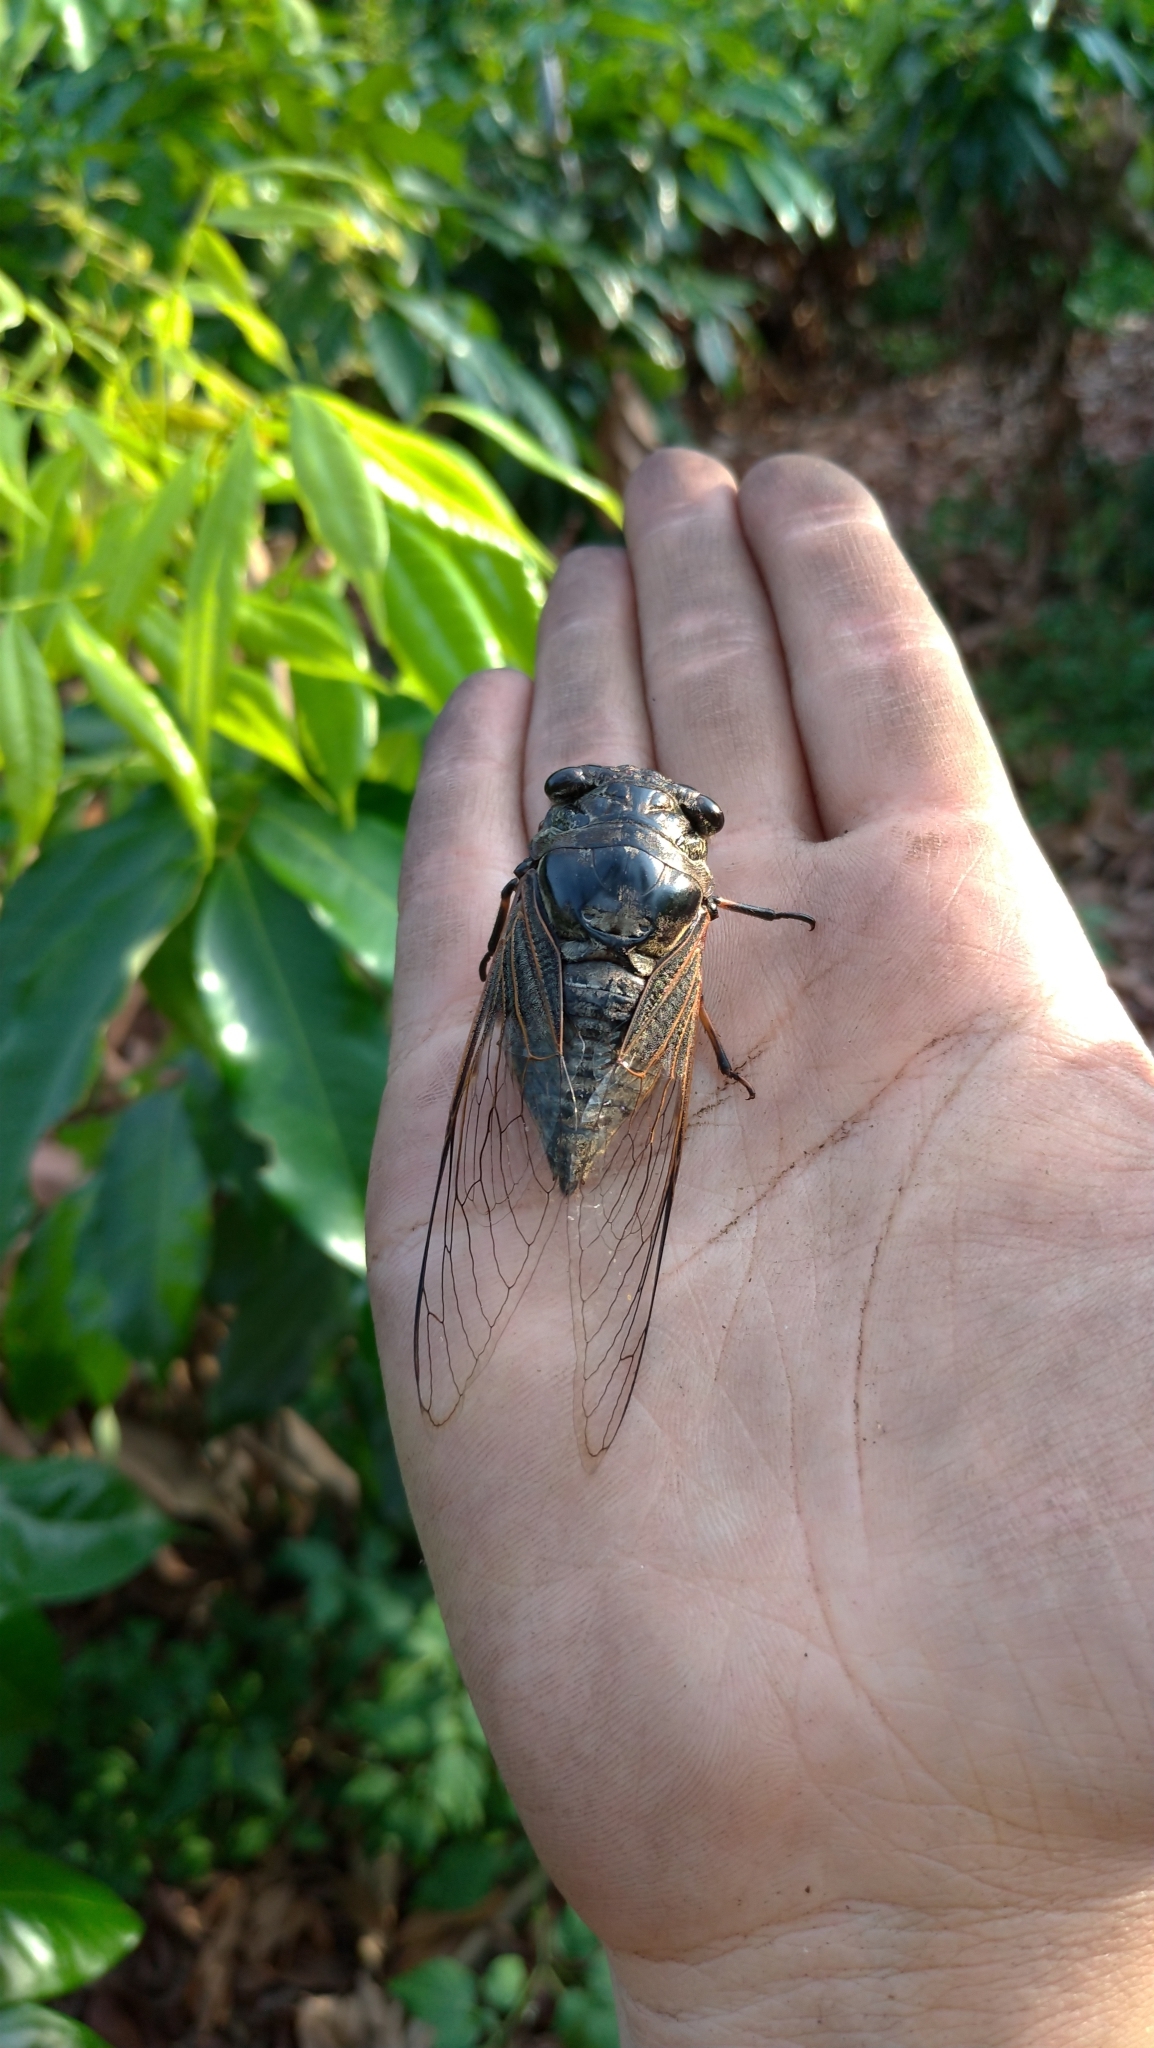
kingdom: Animalia
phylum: Arthropoda
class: Insecta
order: Hemiptera
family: Cicadidae
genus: Cryptotympana
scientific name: Cryptotympana atrata
